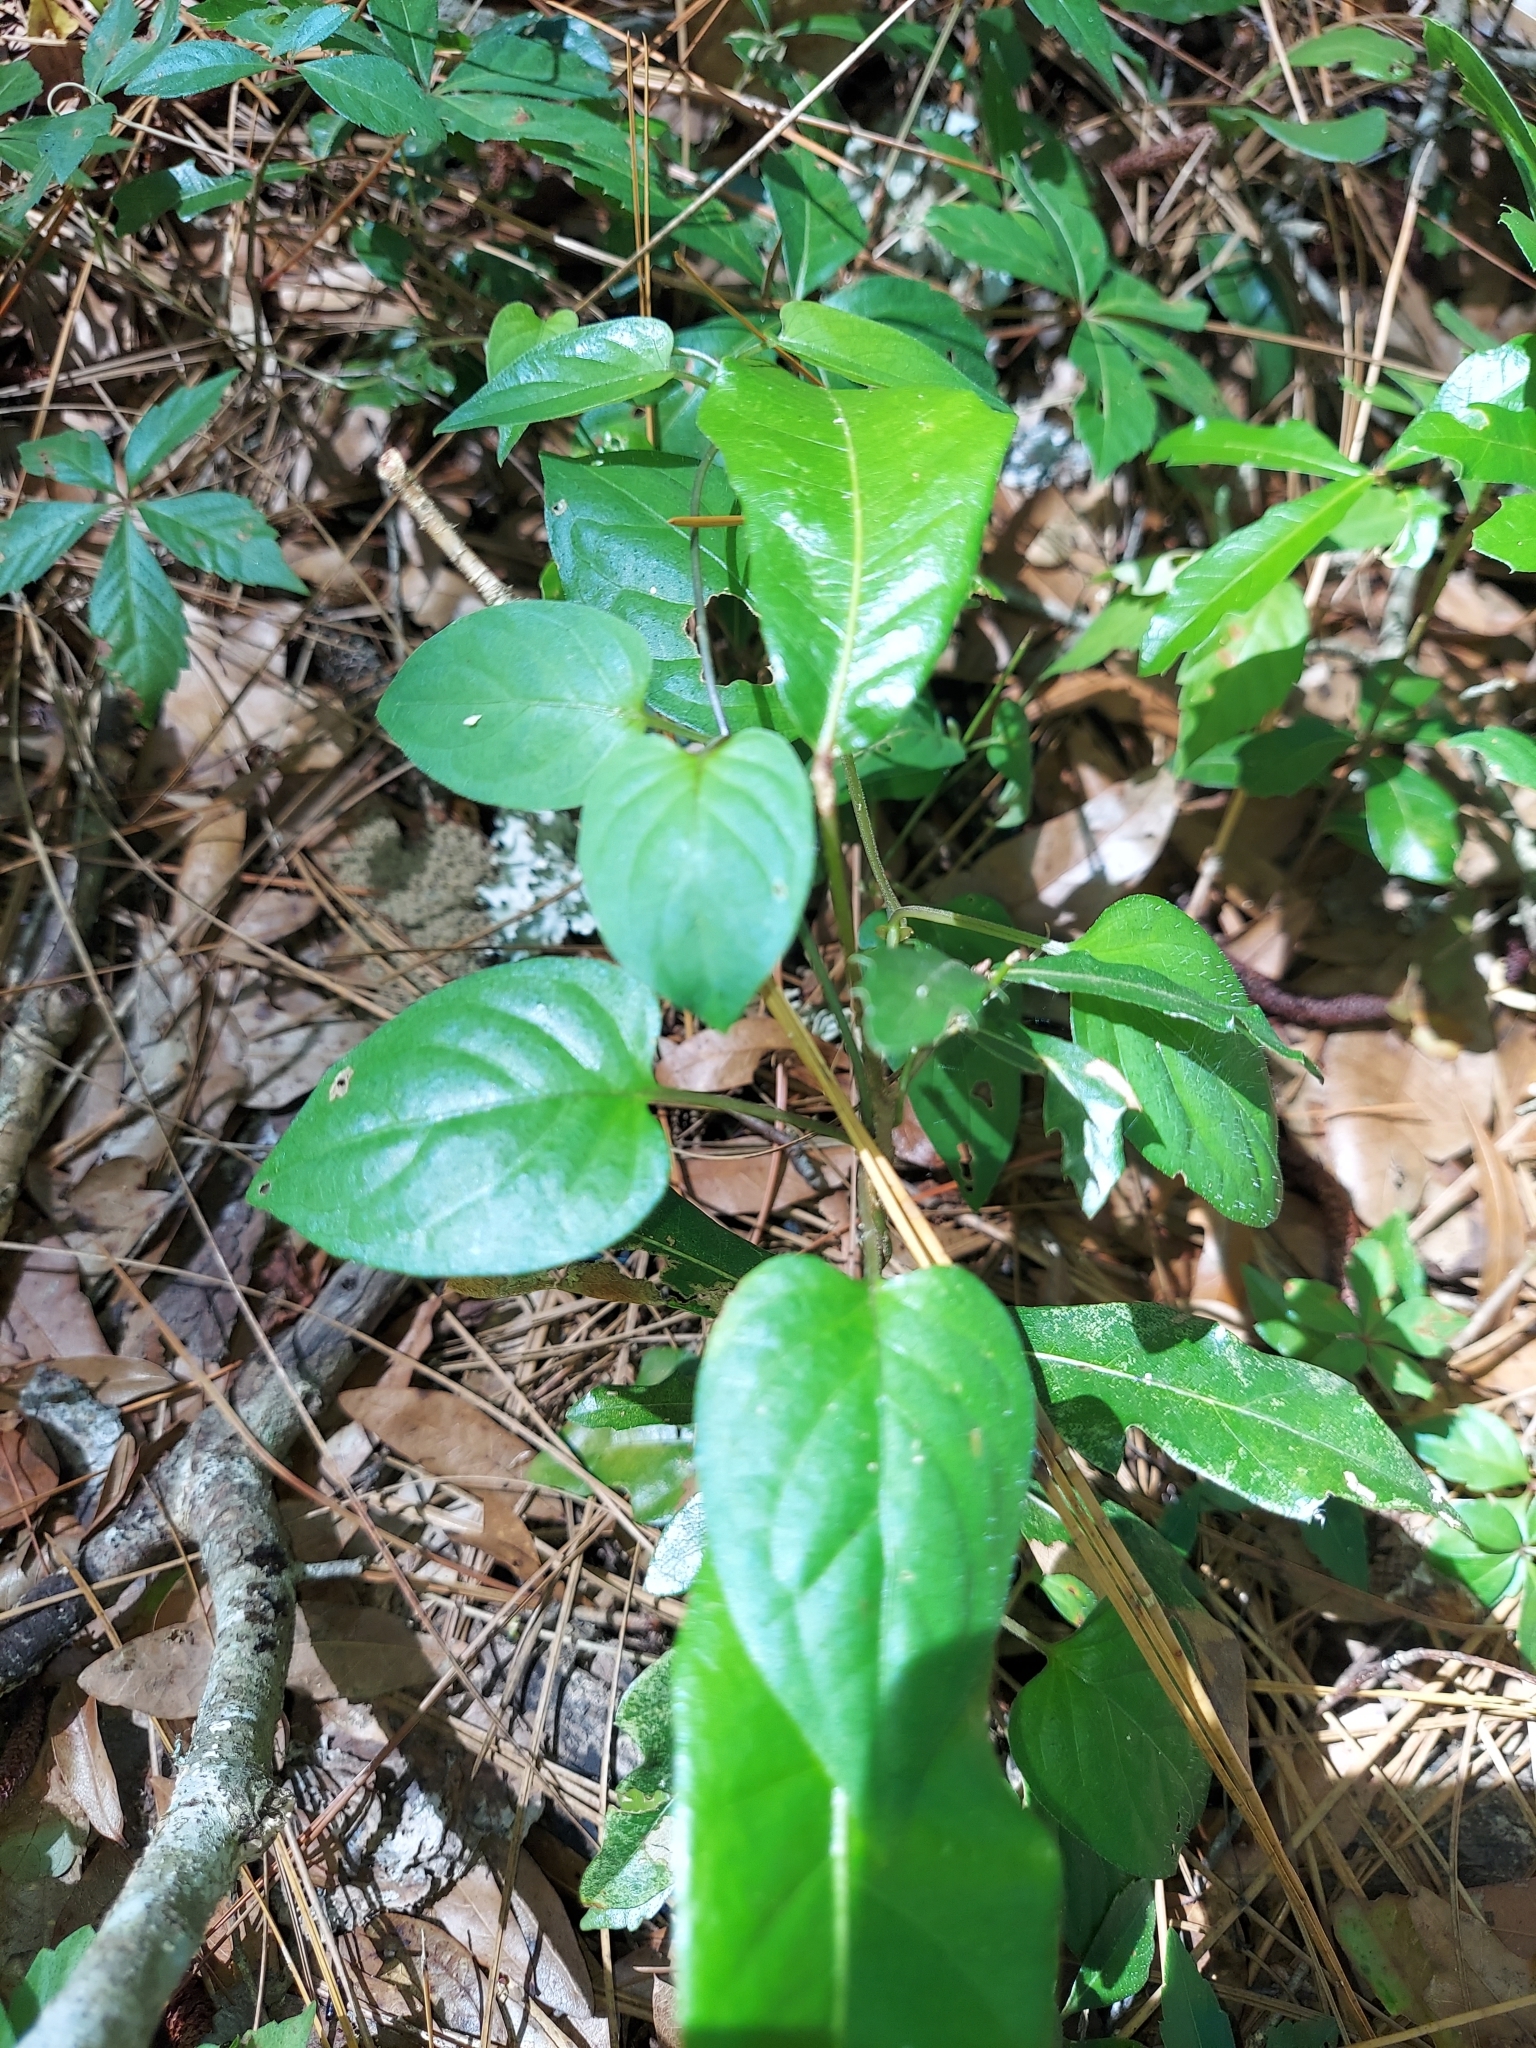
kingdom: Plantae
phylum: Tracheophyta
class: Magnoliopsida
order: Gentianales
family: Rubiaceae
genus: Paederia
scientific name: Paederia foetida
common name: Stinkvine
